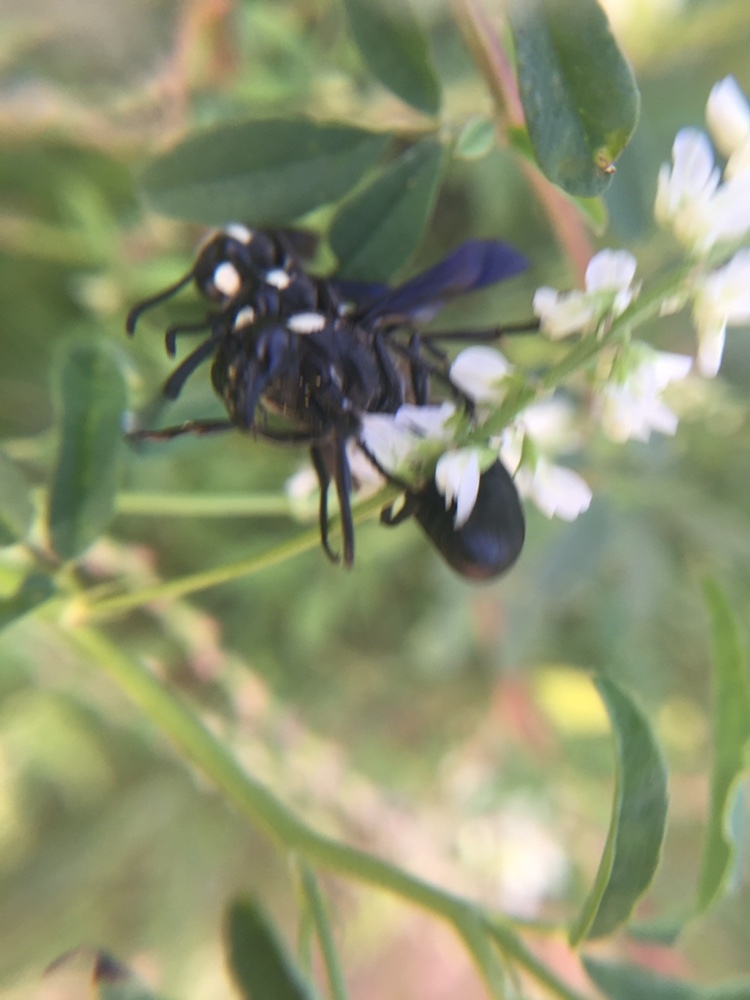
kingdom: Animalia
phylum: Arthropoda
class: Insecta
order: Hymenoptera
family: Eumenidae
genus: Monobia
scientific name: Monobia quadridens
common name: Four-toothed mason wasp
